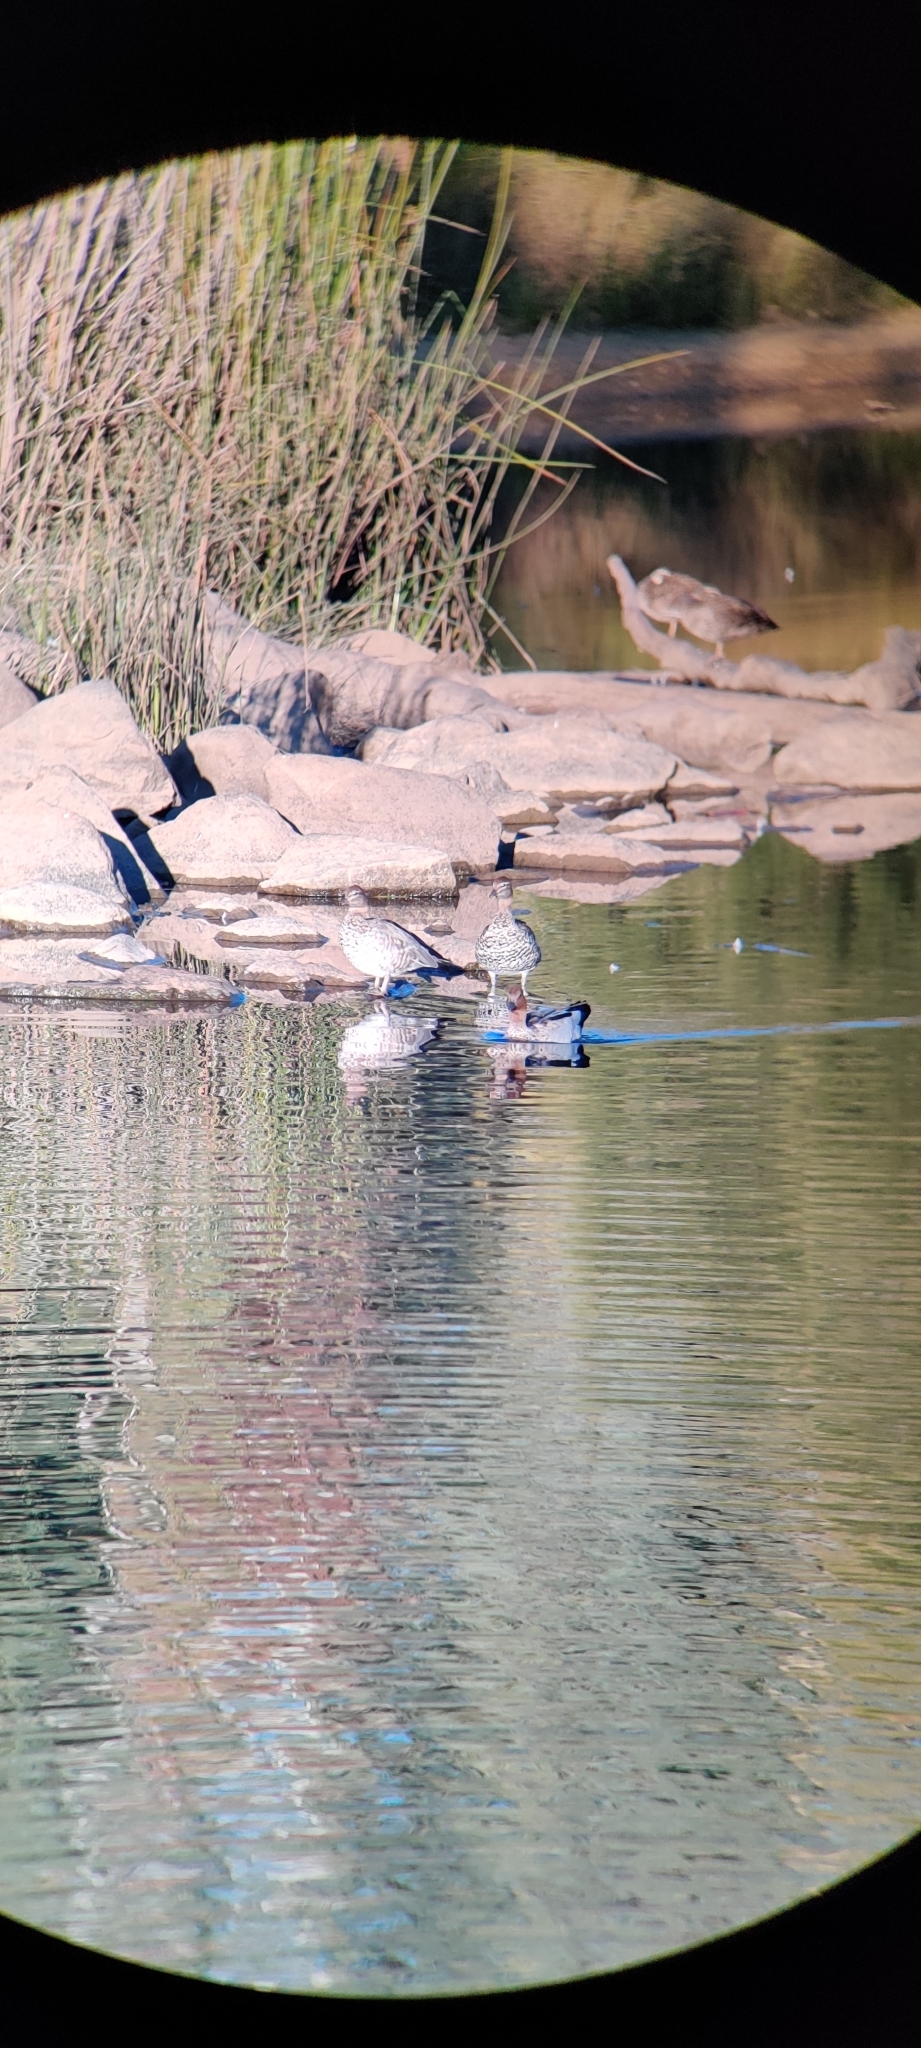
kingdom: Animalia
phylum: Chordata
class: Aves
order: Anseriformes
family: Anatidae
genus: Chenonetta
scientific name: Chenonetta jubata
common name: Maned duck
